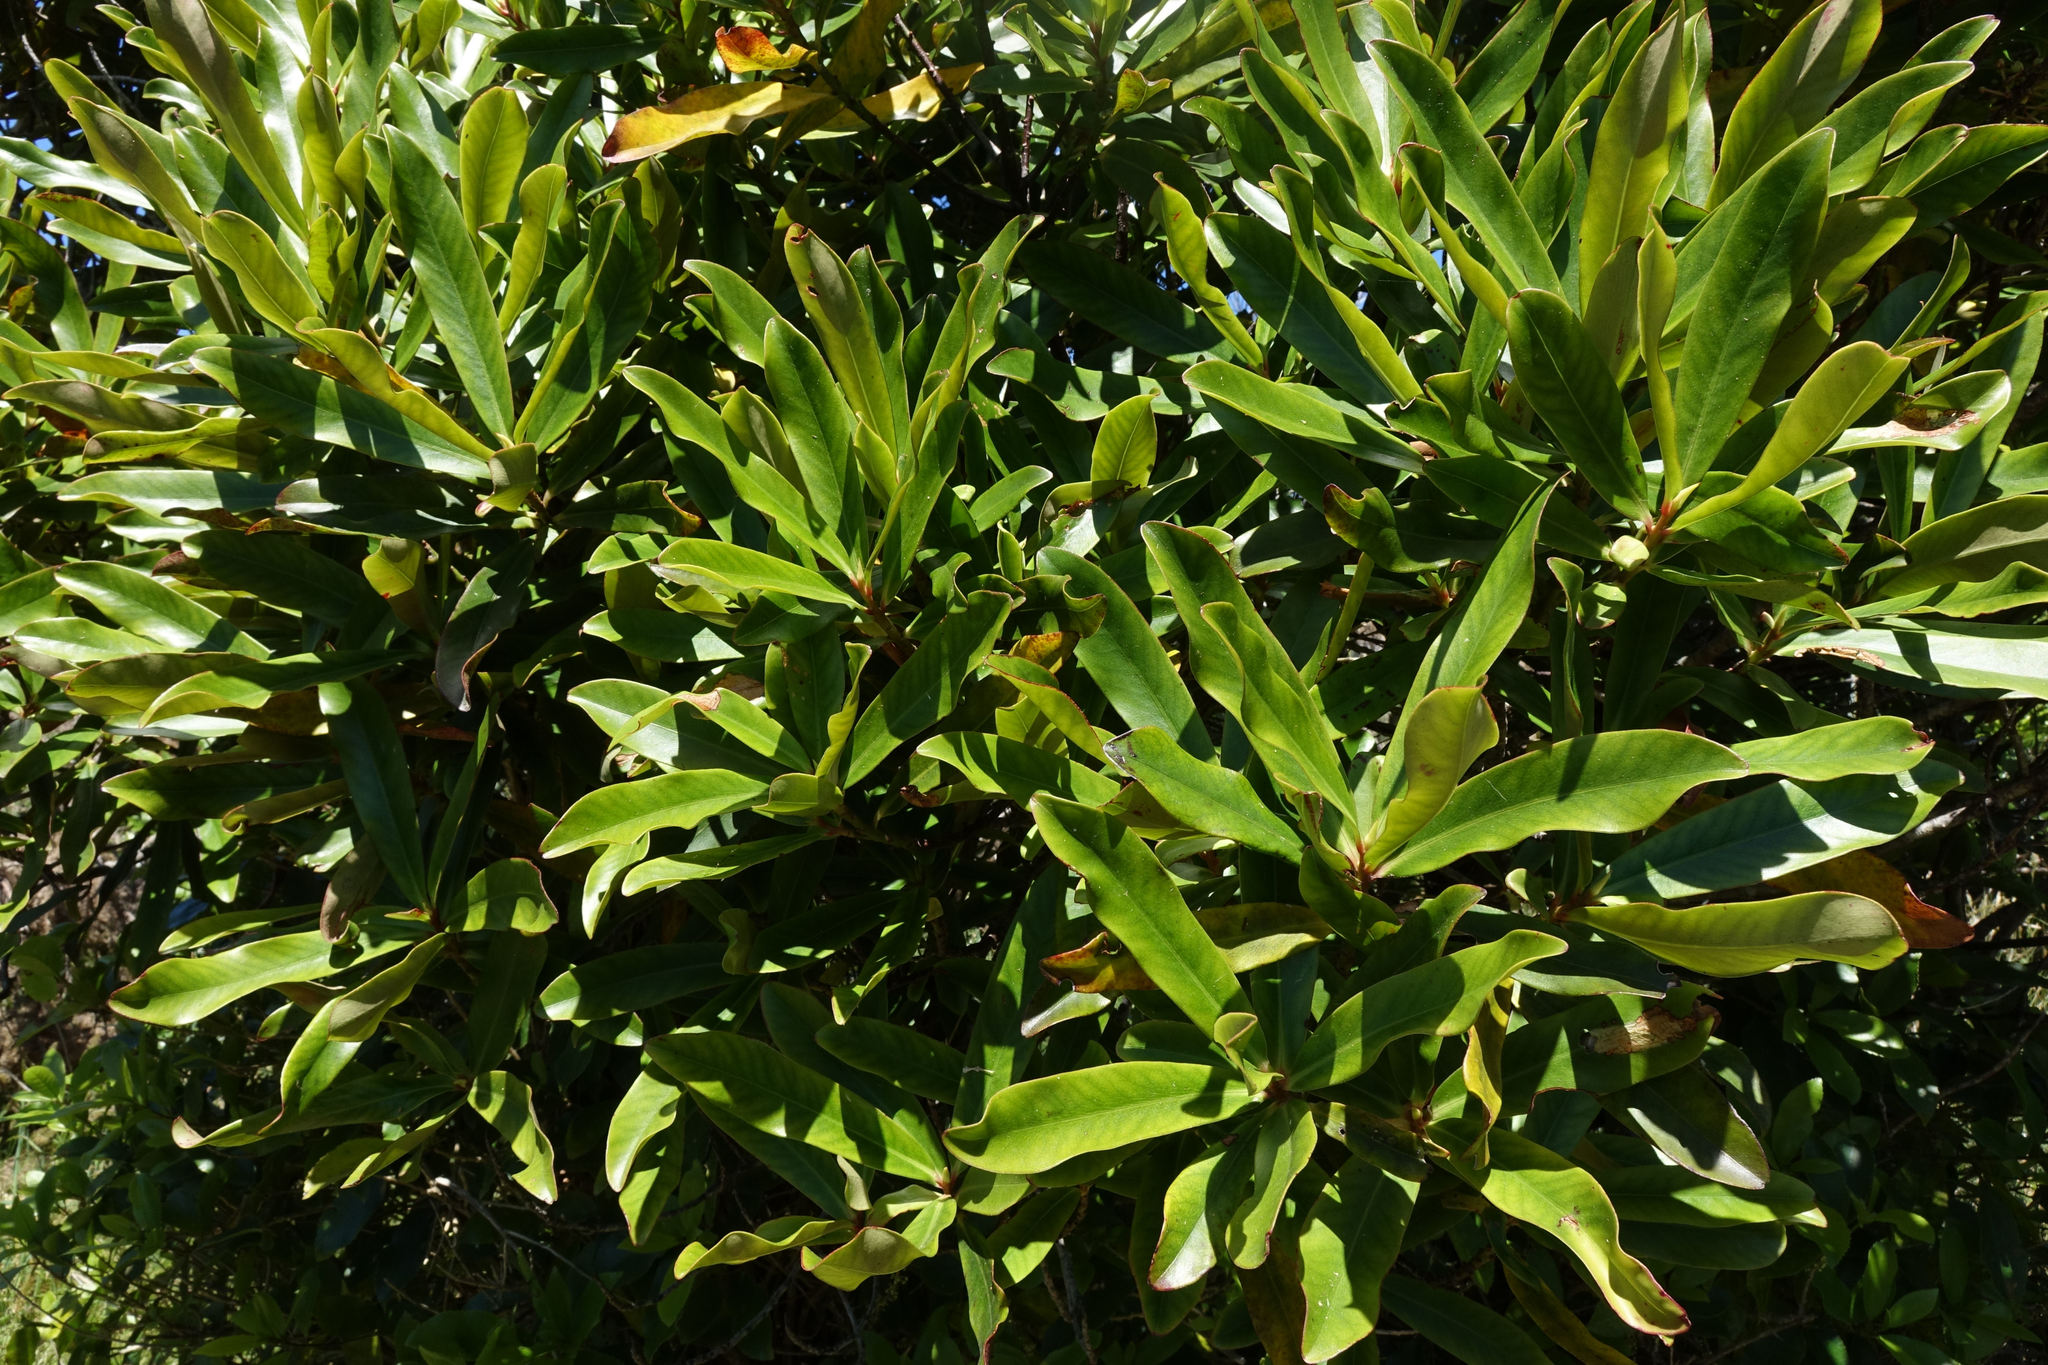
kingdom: Plantae
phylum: Tracheophyta
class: Magnoliopsida
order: Ericales
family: Primulaceae
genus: Myrsine
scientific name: Myrsine salicina
